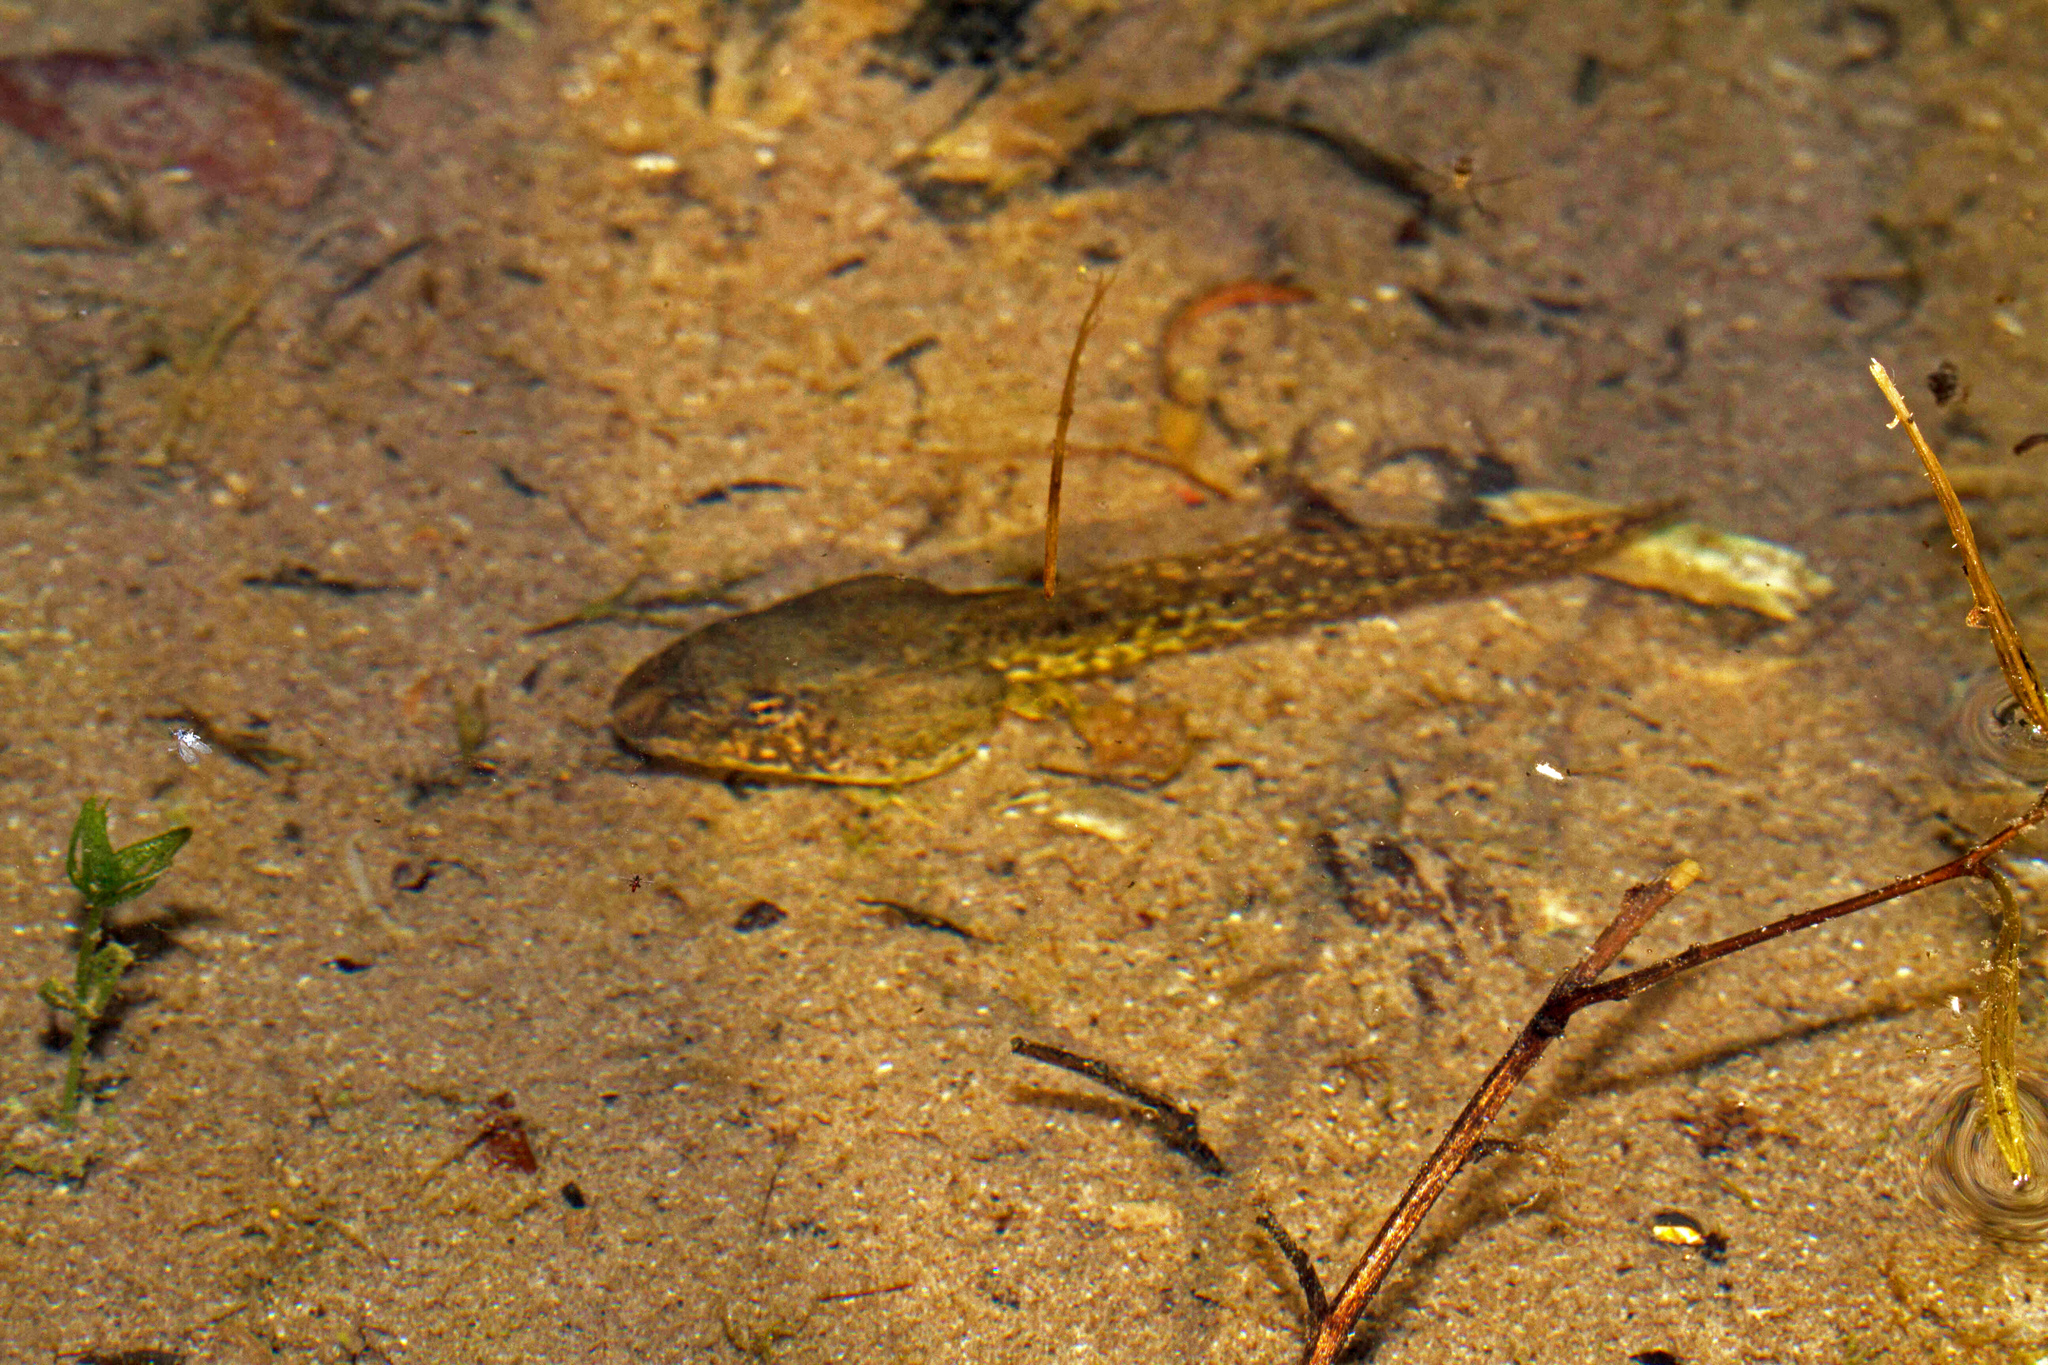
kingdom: Animalia
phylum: Chordata
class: Amphibia
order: Anura
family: Ranidae
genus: Lithobates
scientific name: Lithobates catesbeianus
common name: American bullfrog
